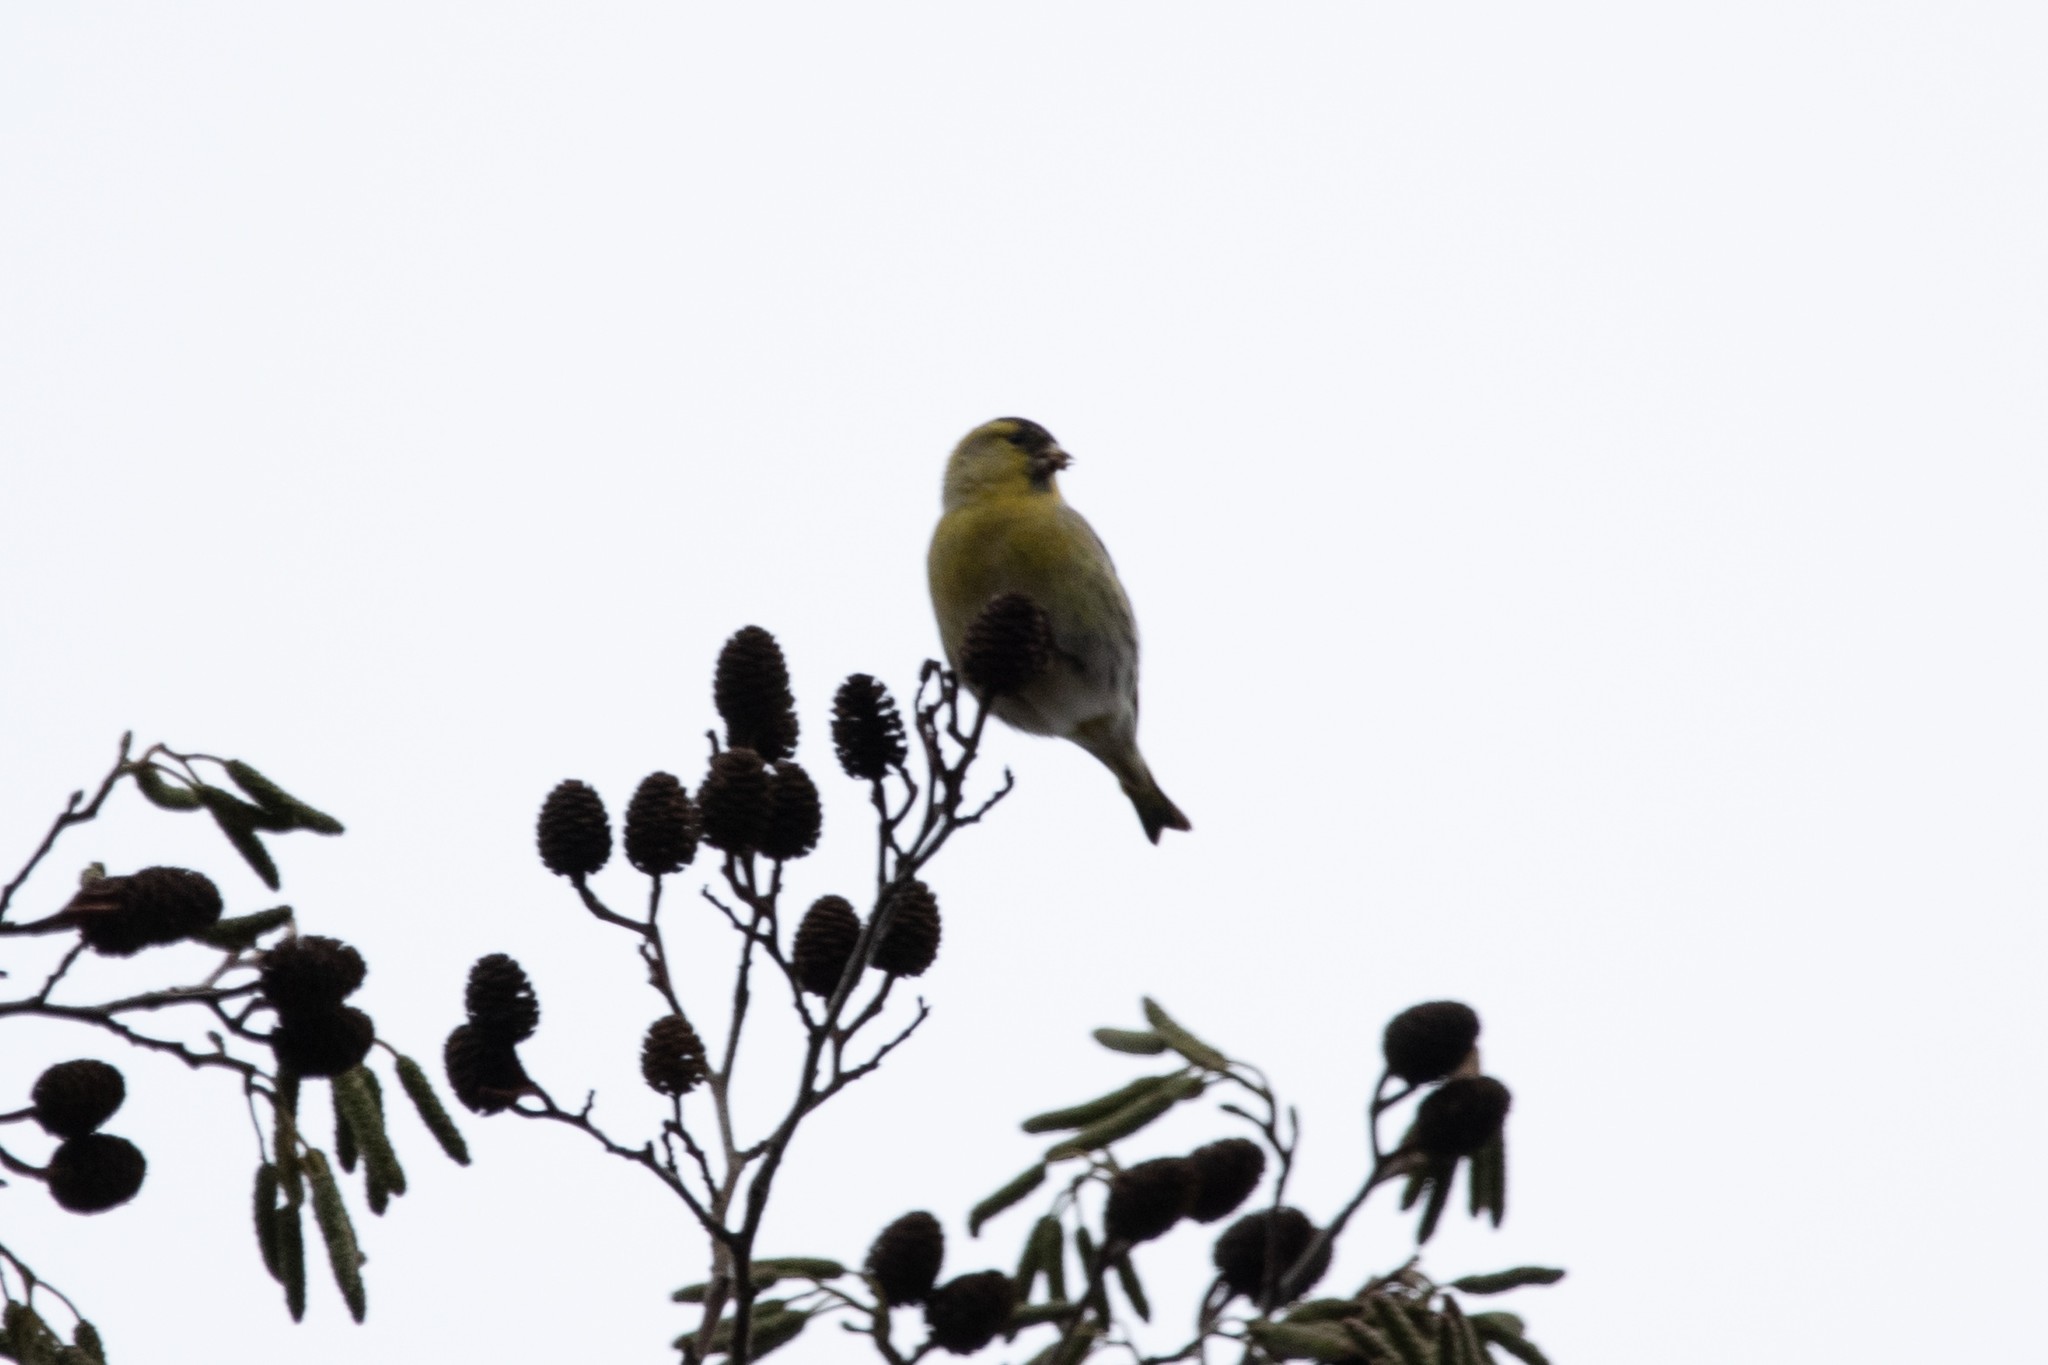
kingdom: Animalia
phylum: Chordata
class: Aves
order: Passeriformes
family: Fringillidae
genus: Spinus
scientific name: Spinus spinus
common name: Eurasian siskin
